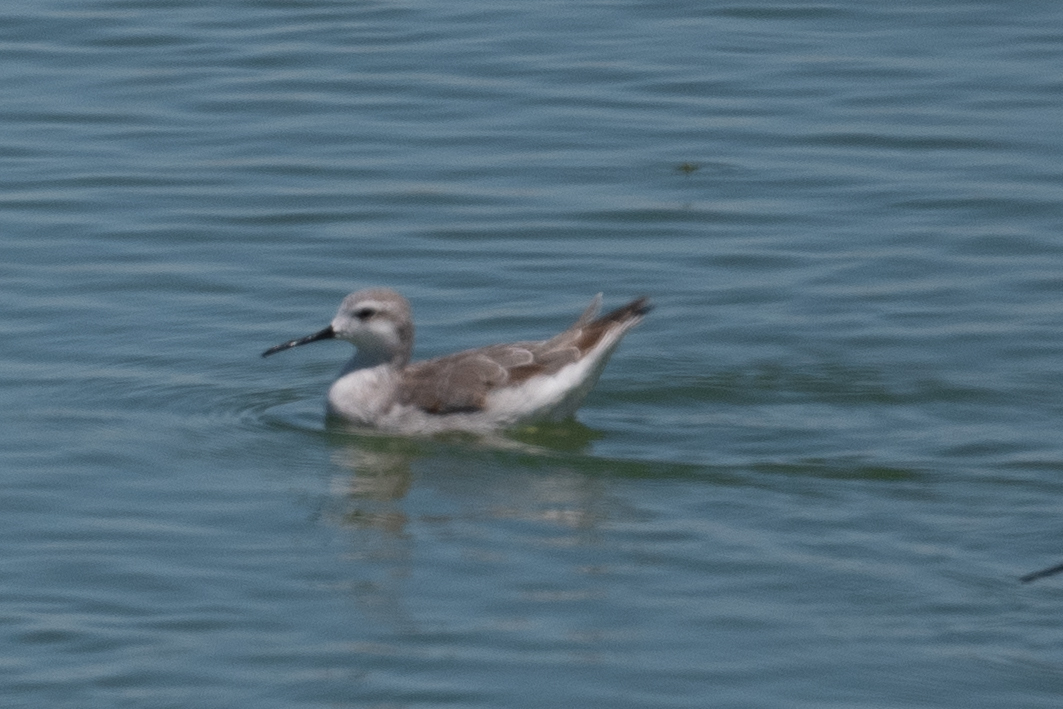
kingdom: Animalia
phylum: Chordata
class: Aves
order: Charadriiformes
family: Scolopacidae
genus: Phalaropus
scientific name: Phalaropus tricolor
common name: Wilson's phalarope
